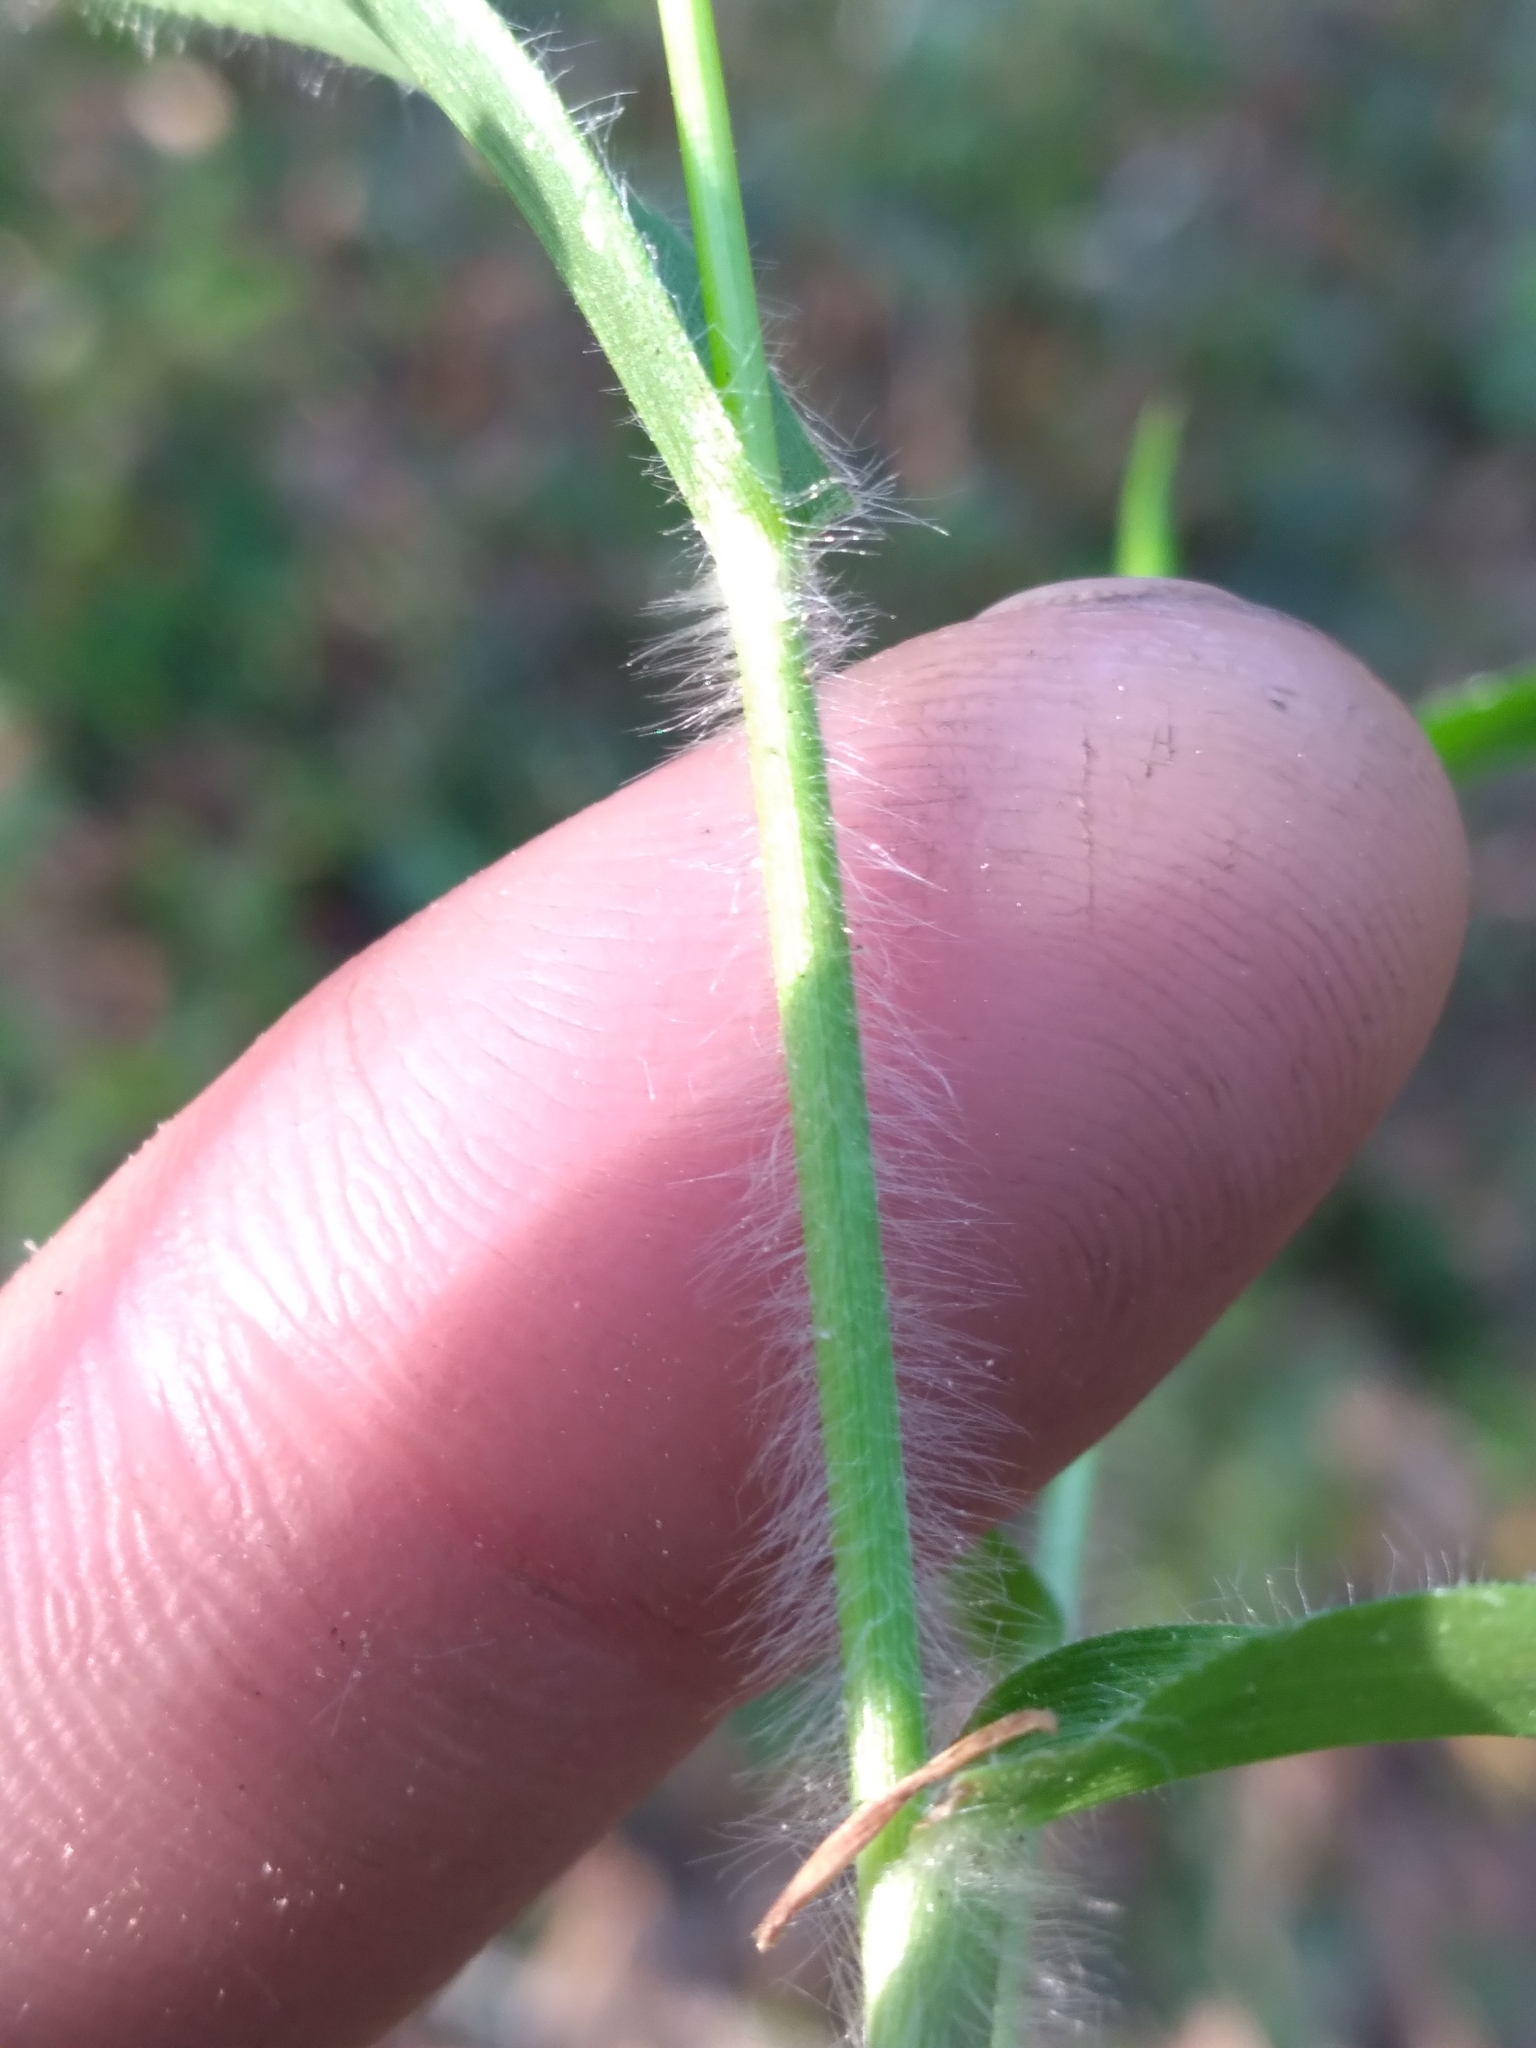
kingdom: Plantae
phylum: Tracheophyta
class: Liliopsida
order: Poales
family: Poaceae
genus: Dichanthelium
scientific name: Dichanthelium laxiflorum
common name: Soft-tuft panic grass
